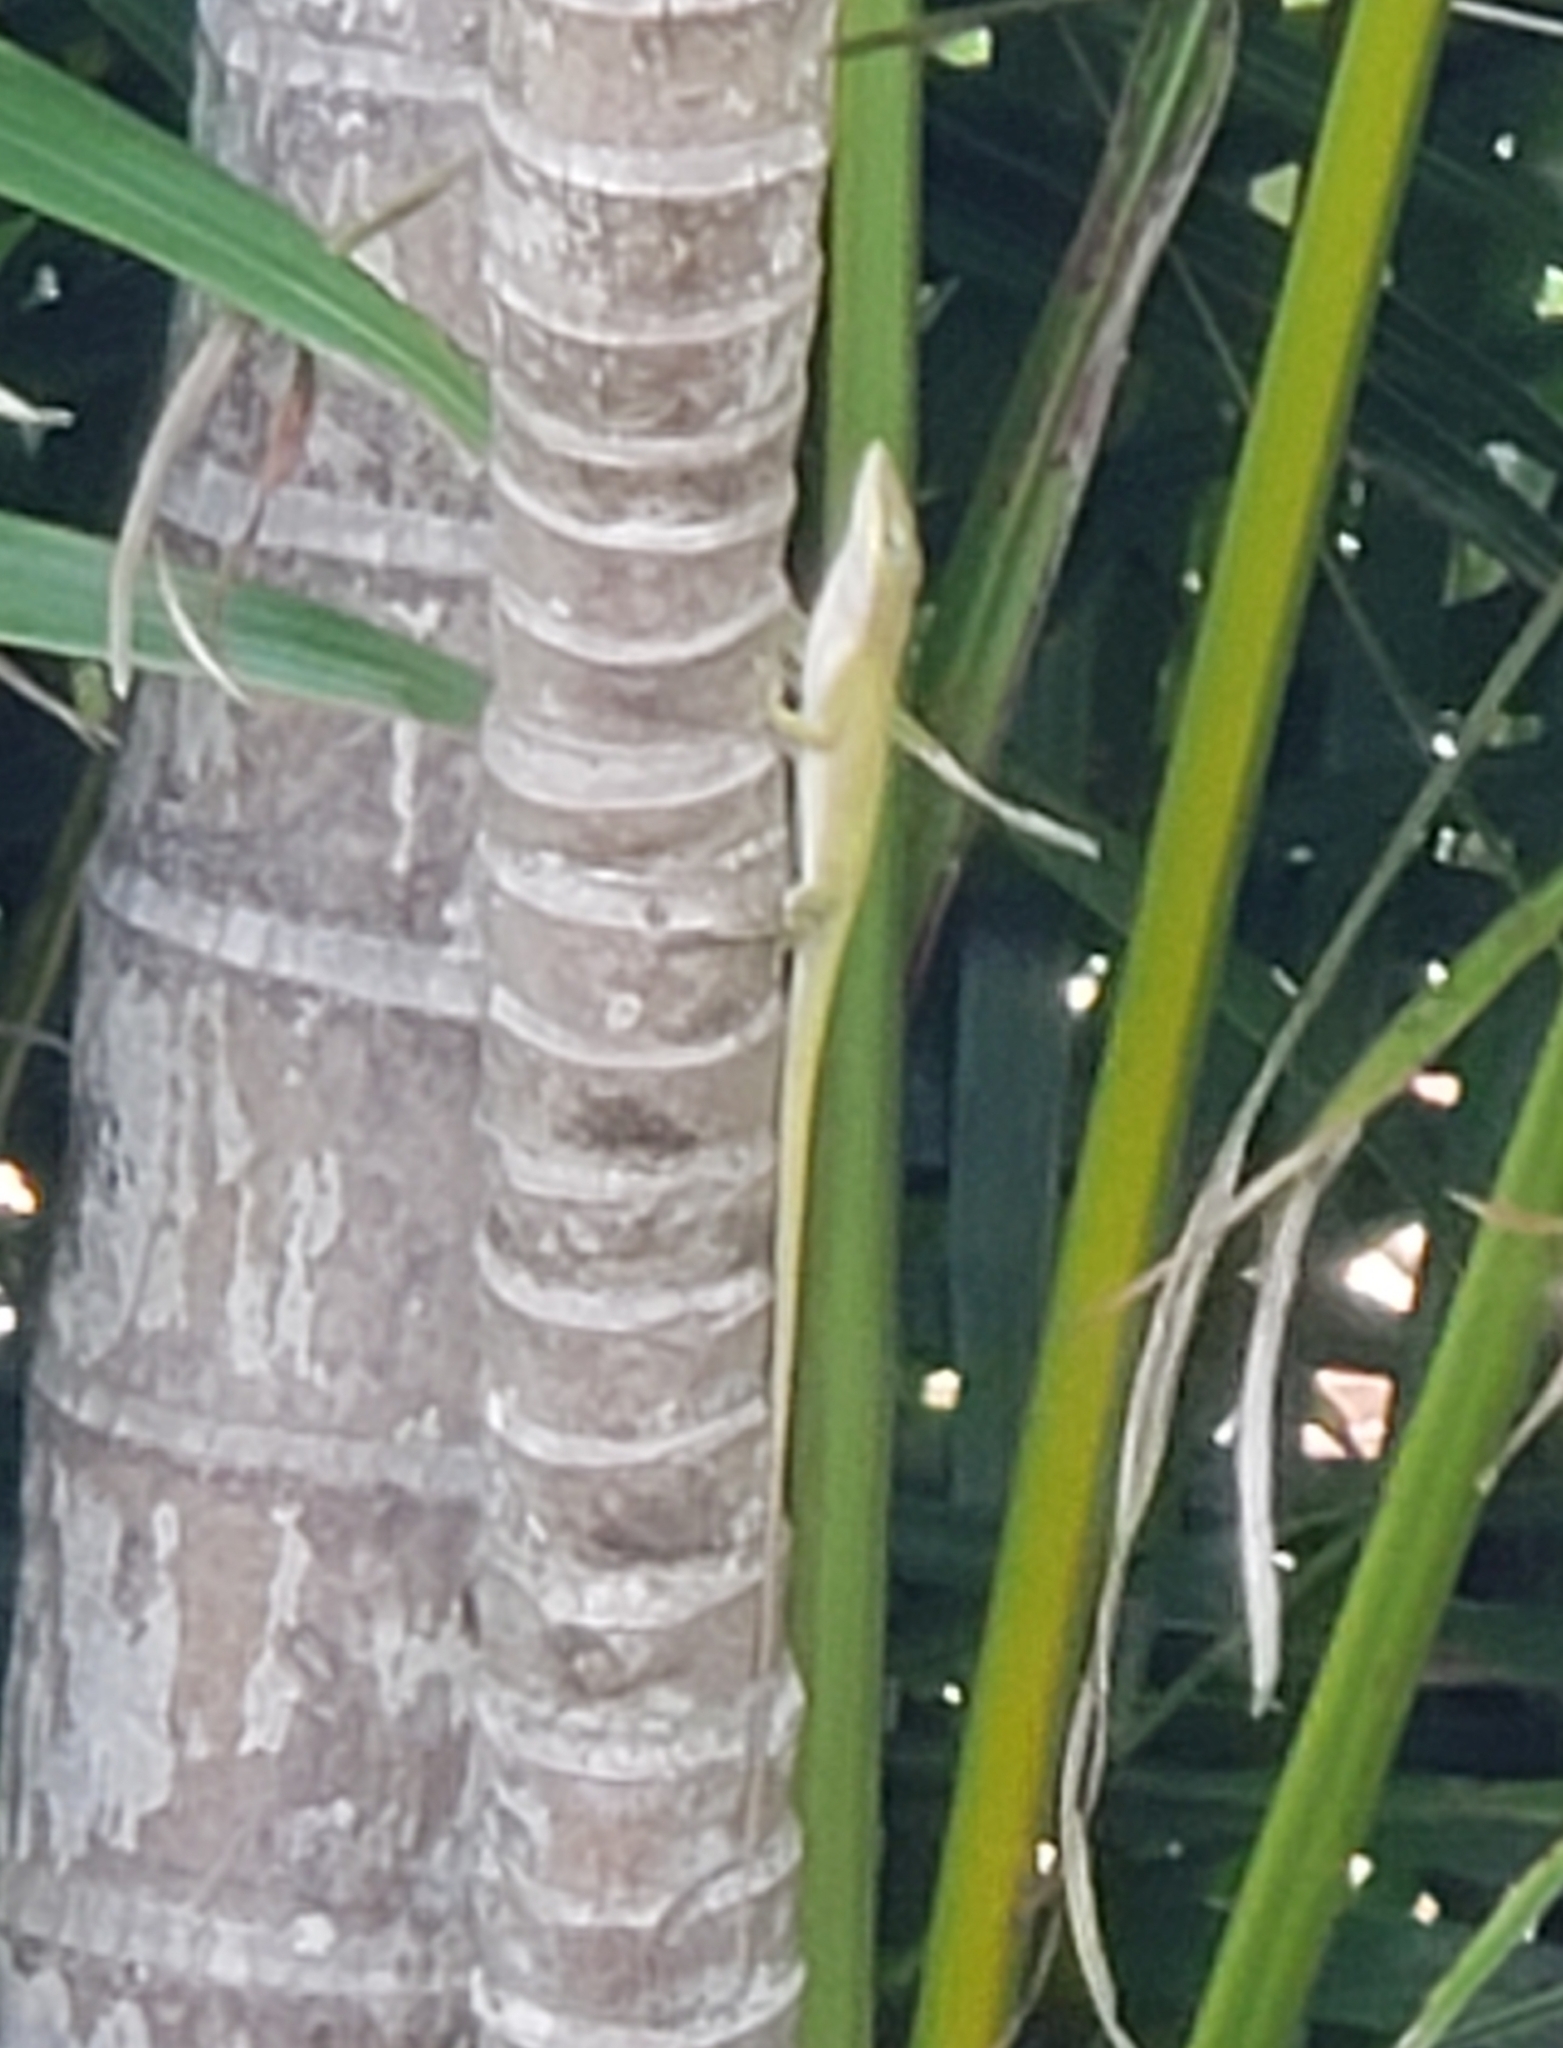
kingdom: Animalia
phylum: Chordata
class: Squamata
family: Dactyloidae
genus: Anolis
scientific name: Anolis carolinensis
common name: Green anole
